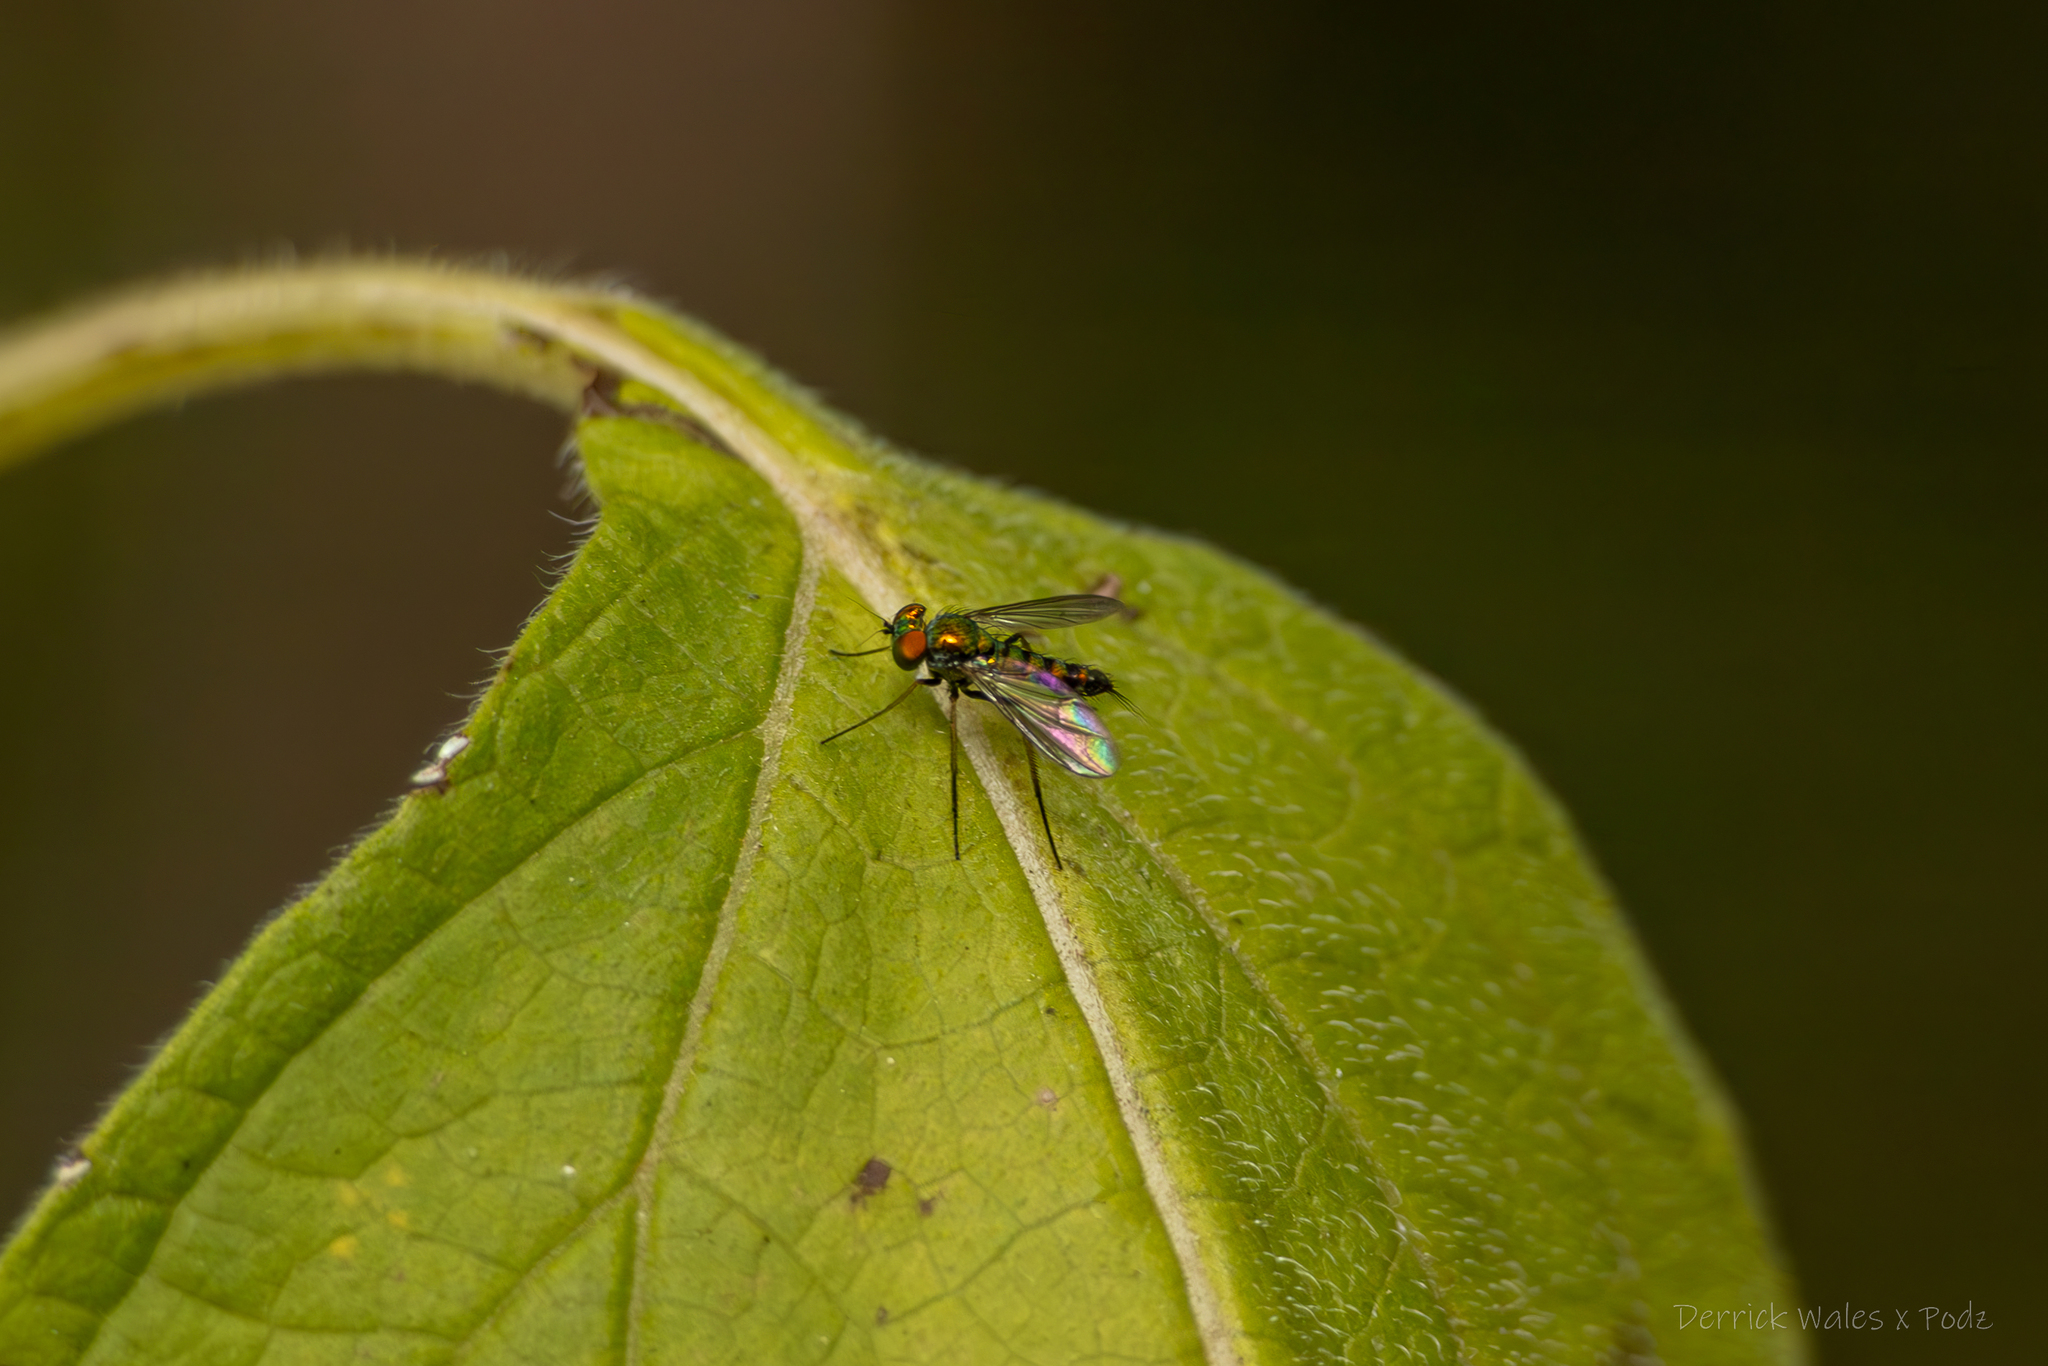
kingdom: Animalia
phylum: Arthropoda
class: Insecta
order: Diptera
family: Dolichopodidae
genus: Condylostylus
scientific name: Condylostylus caudatus
